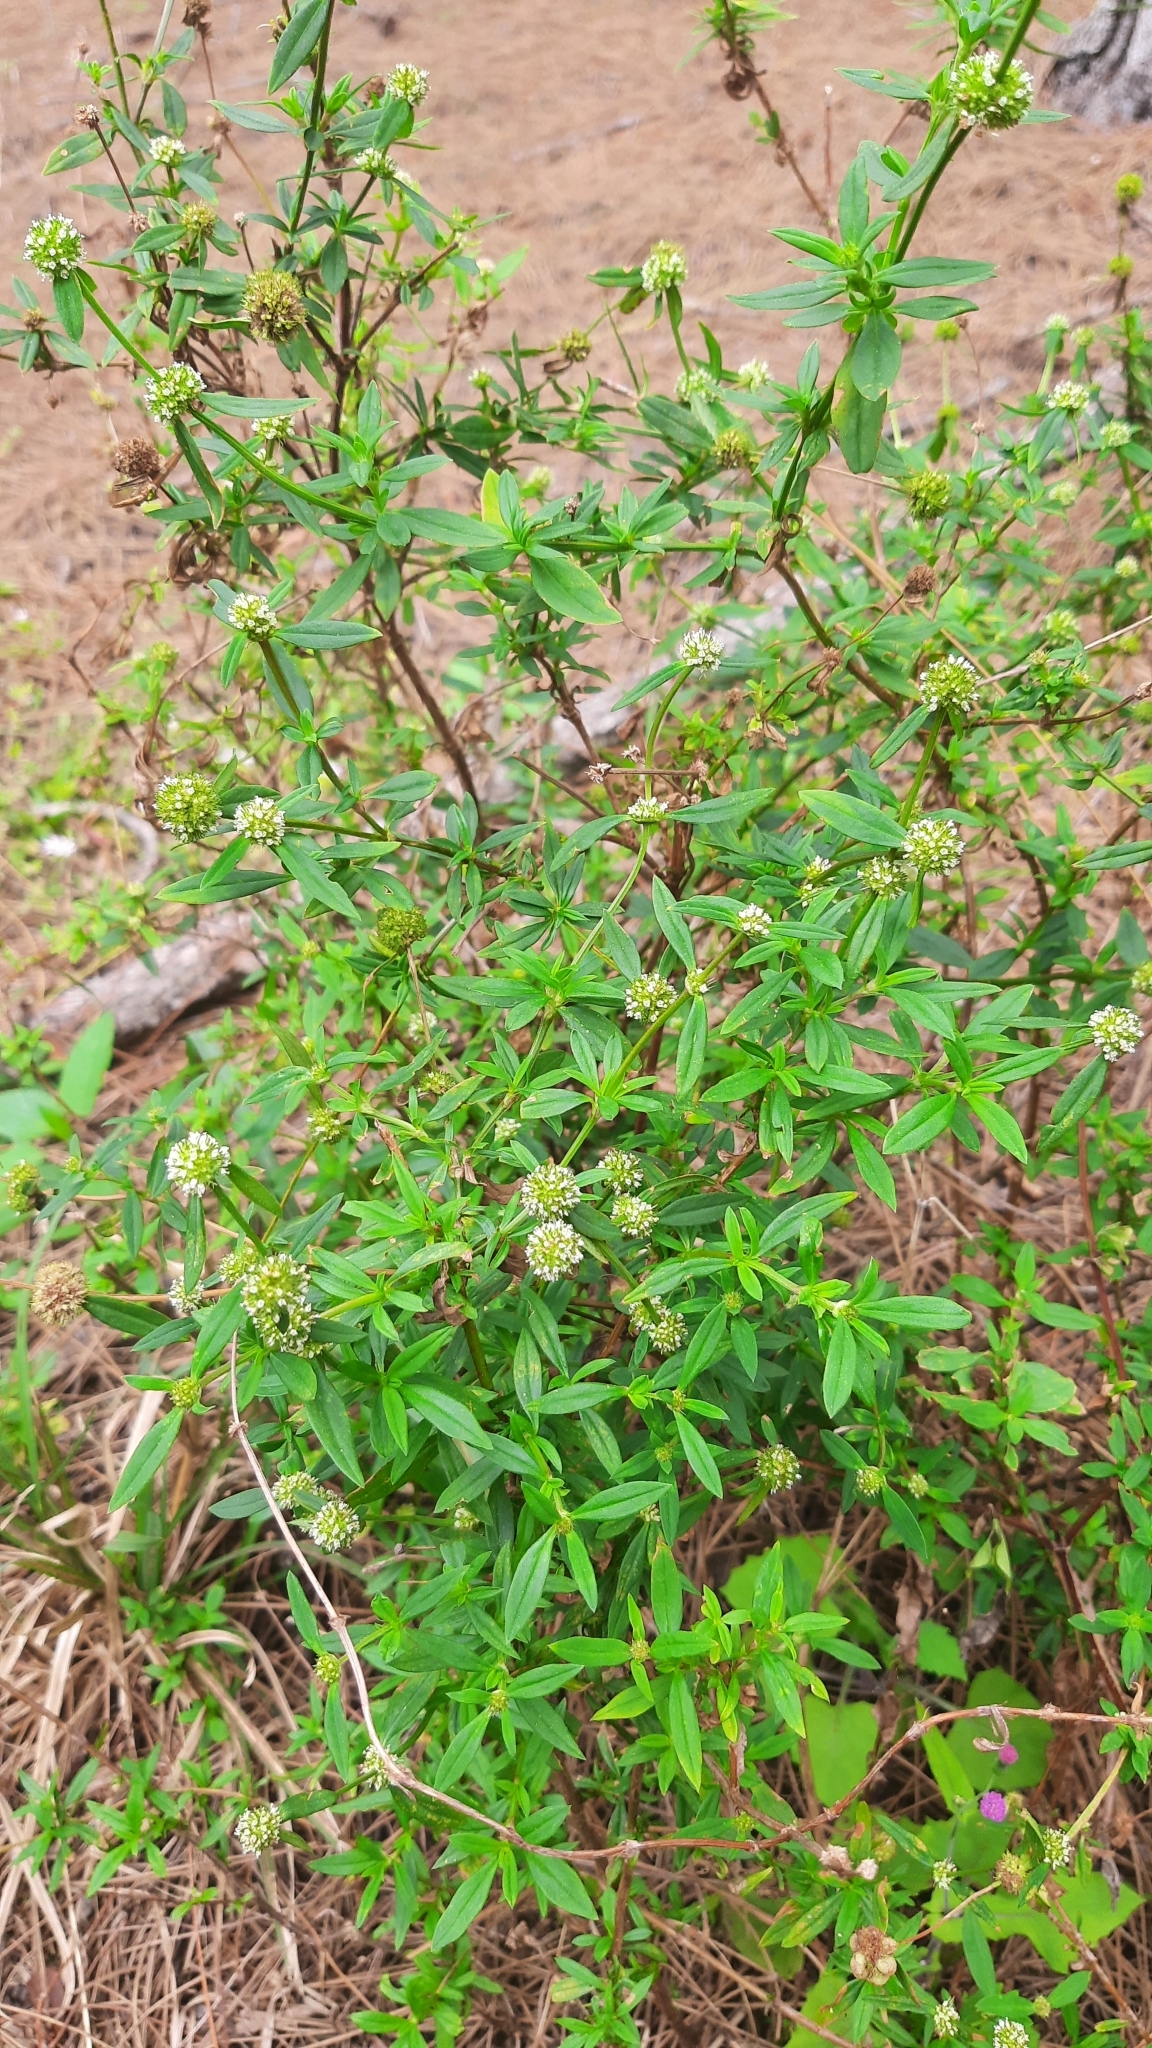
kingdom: Plantae
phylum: Tracheophyta
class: Magnoliopsida
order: Gentianales
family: Rubiaceae
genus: Spermacoce
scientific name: Spermacoce verticillata
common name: Shrubby false buttonweed
